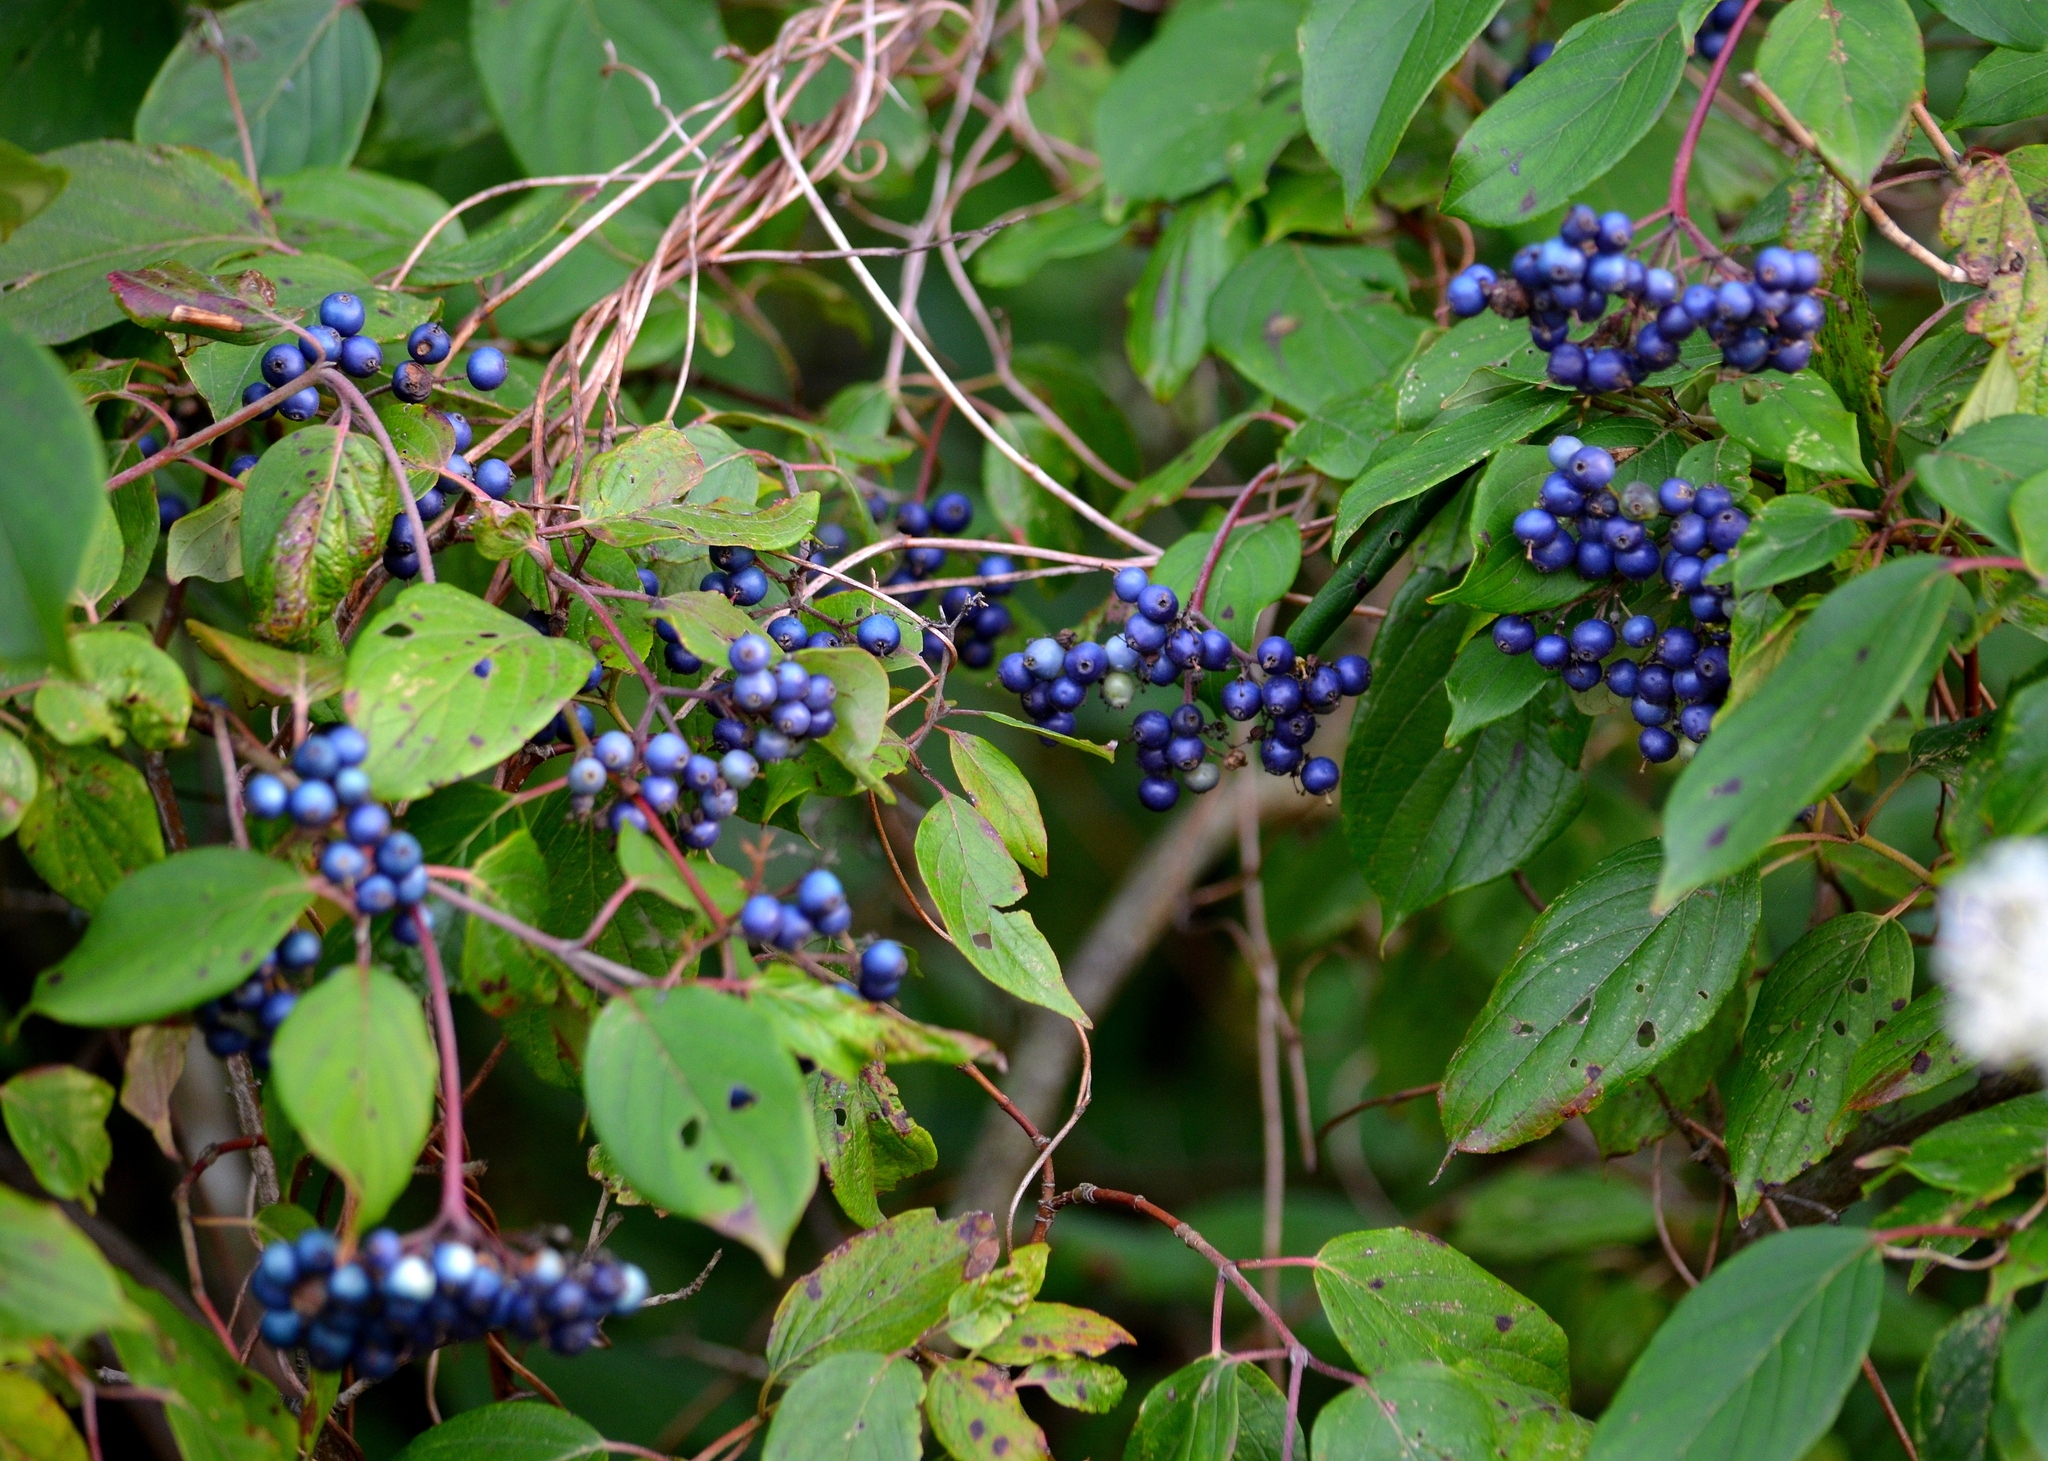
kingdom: Plantae
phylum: Tracheophyta
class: Magnoliopsida
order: Cornales
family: Cornaceae
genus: Cornus
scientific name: Cornus amomum
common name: Silky dogwood
